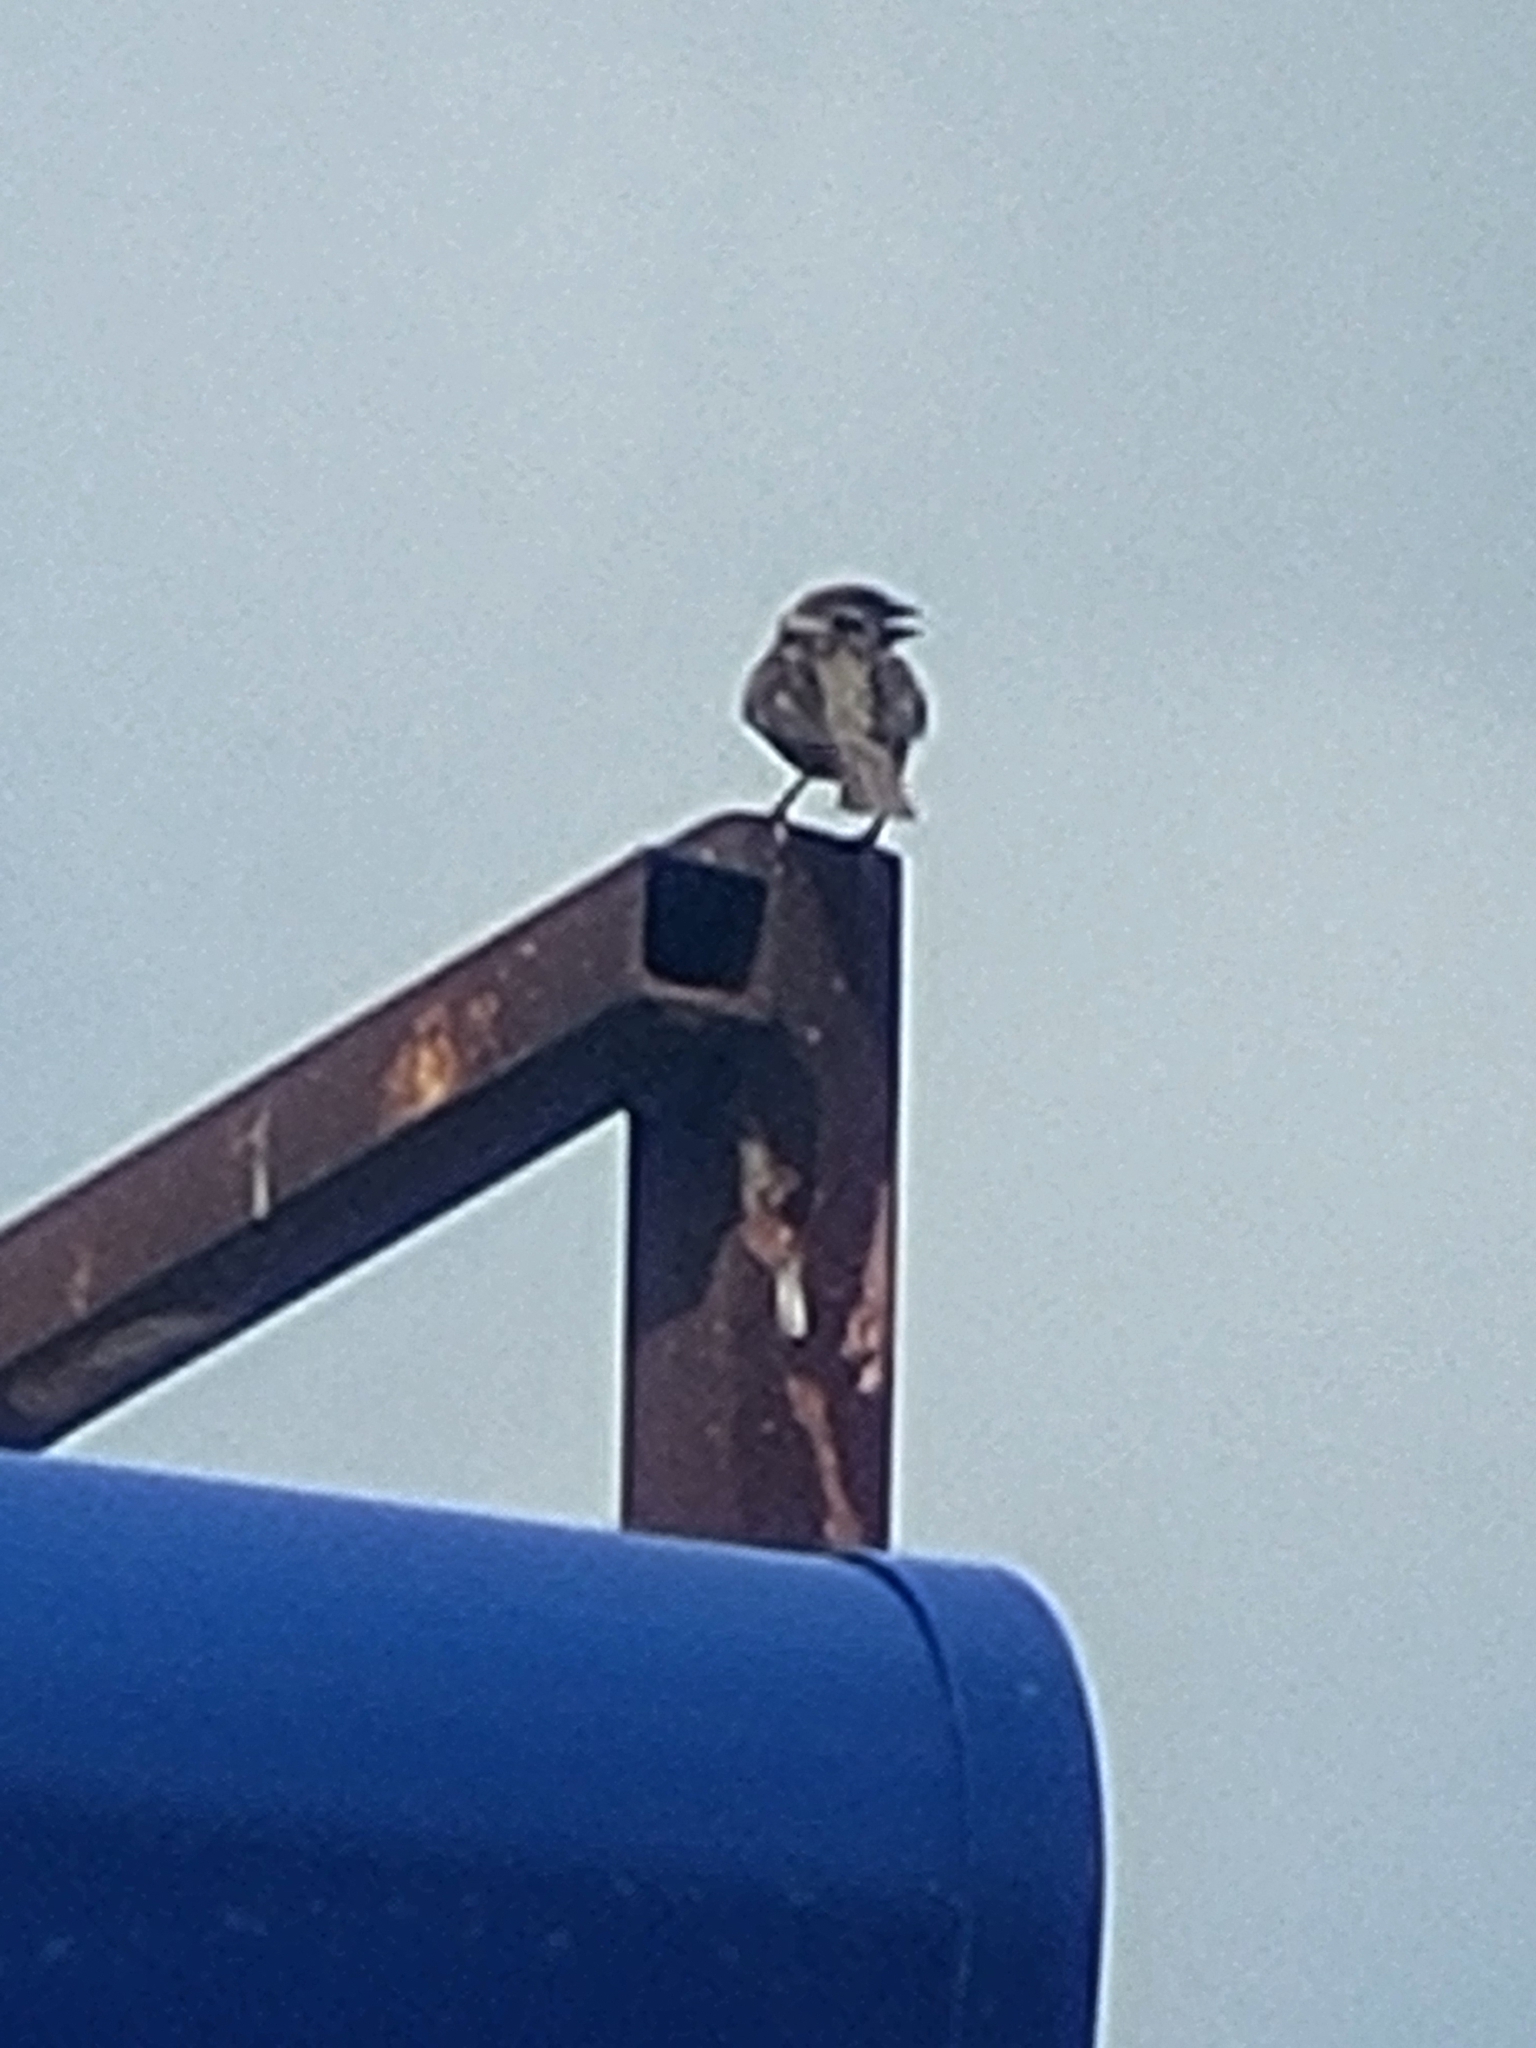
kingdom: Animalia
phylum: Chordata
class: Aves
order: Passeriformes
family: Passeridae
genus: Passer
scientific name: Passer montanus
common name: Eurasian tree sparrow
